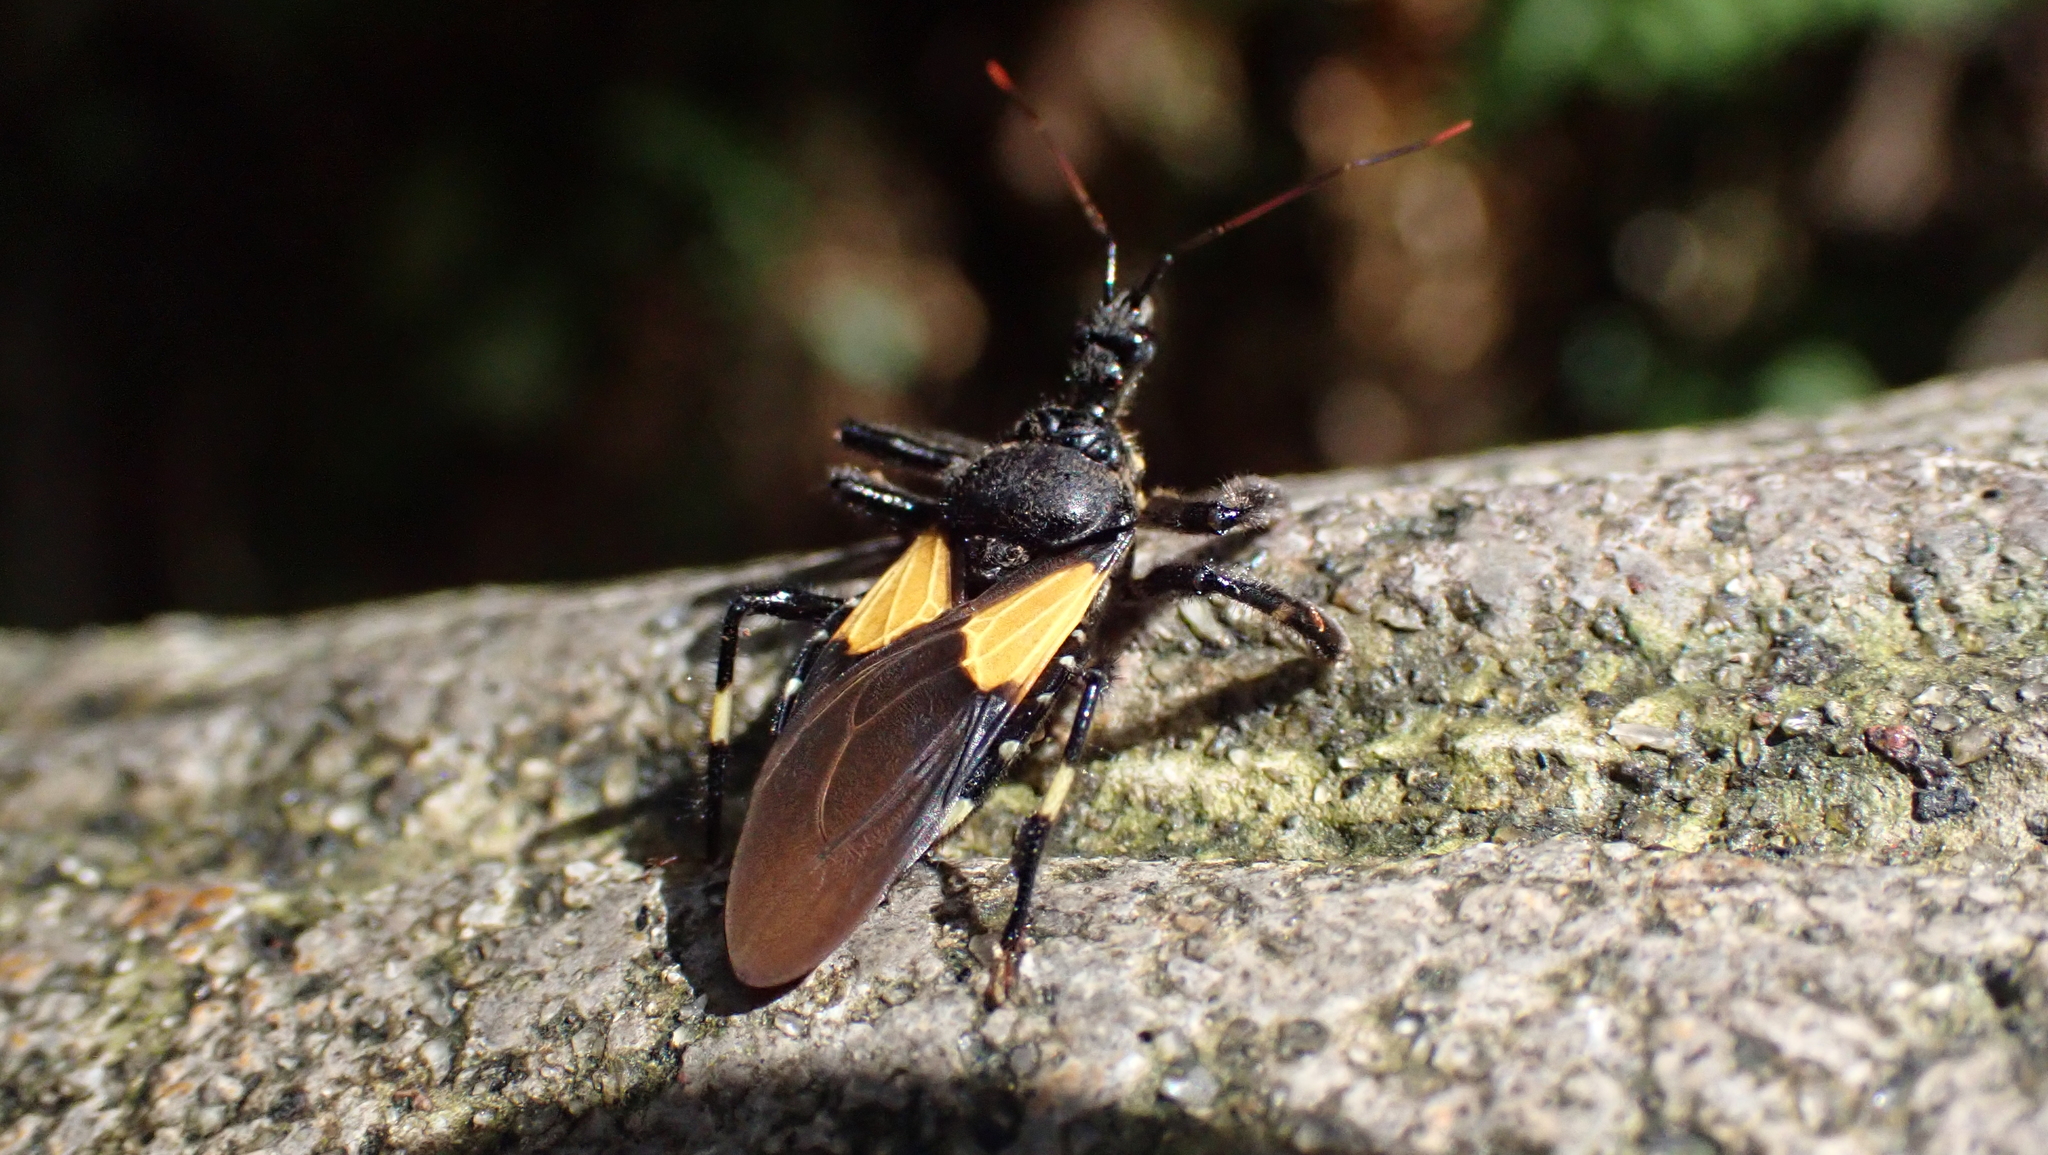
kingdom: Animalia
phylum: Arthropoda
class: Insecta
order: Hemiptera
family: Reduviidae
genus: Apiomerus
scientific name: Apiomerus binotatus
